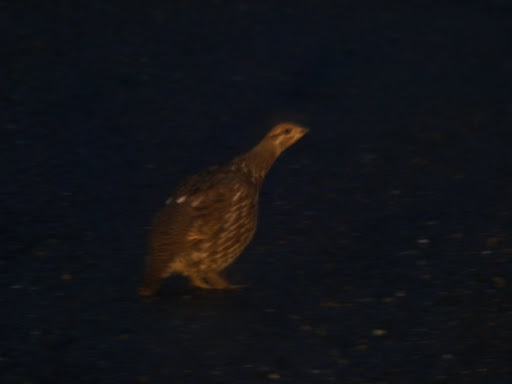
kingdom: Animalia
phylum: Chordata
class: Aves
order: Galliformes
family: Phasianidae
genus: Canachites
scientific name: Canachites canadensis
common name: Spruce grouse
